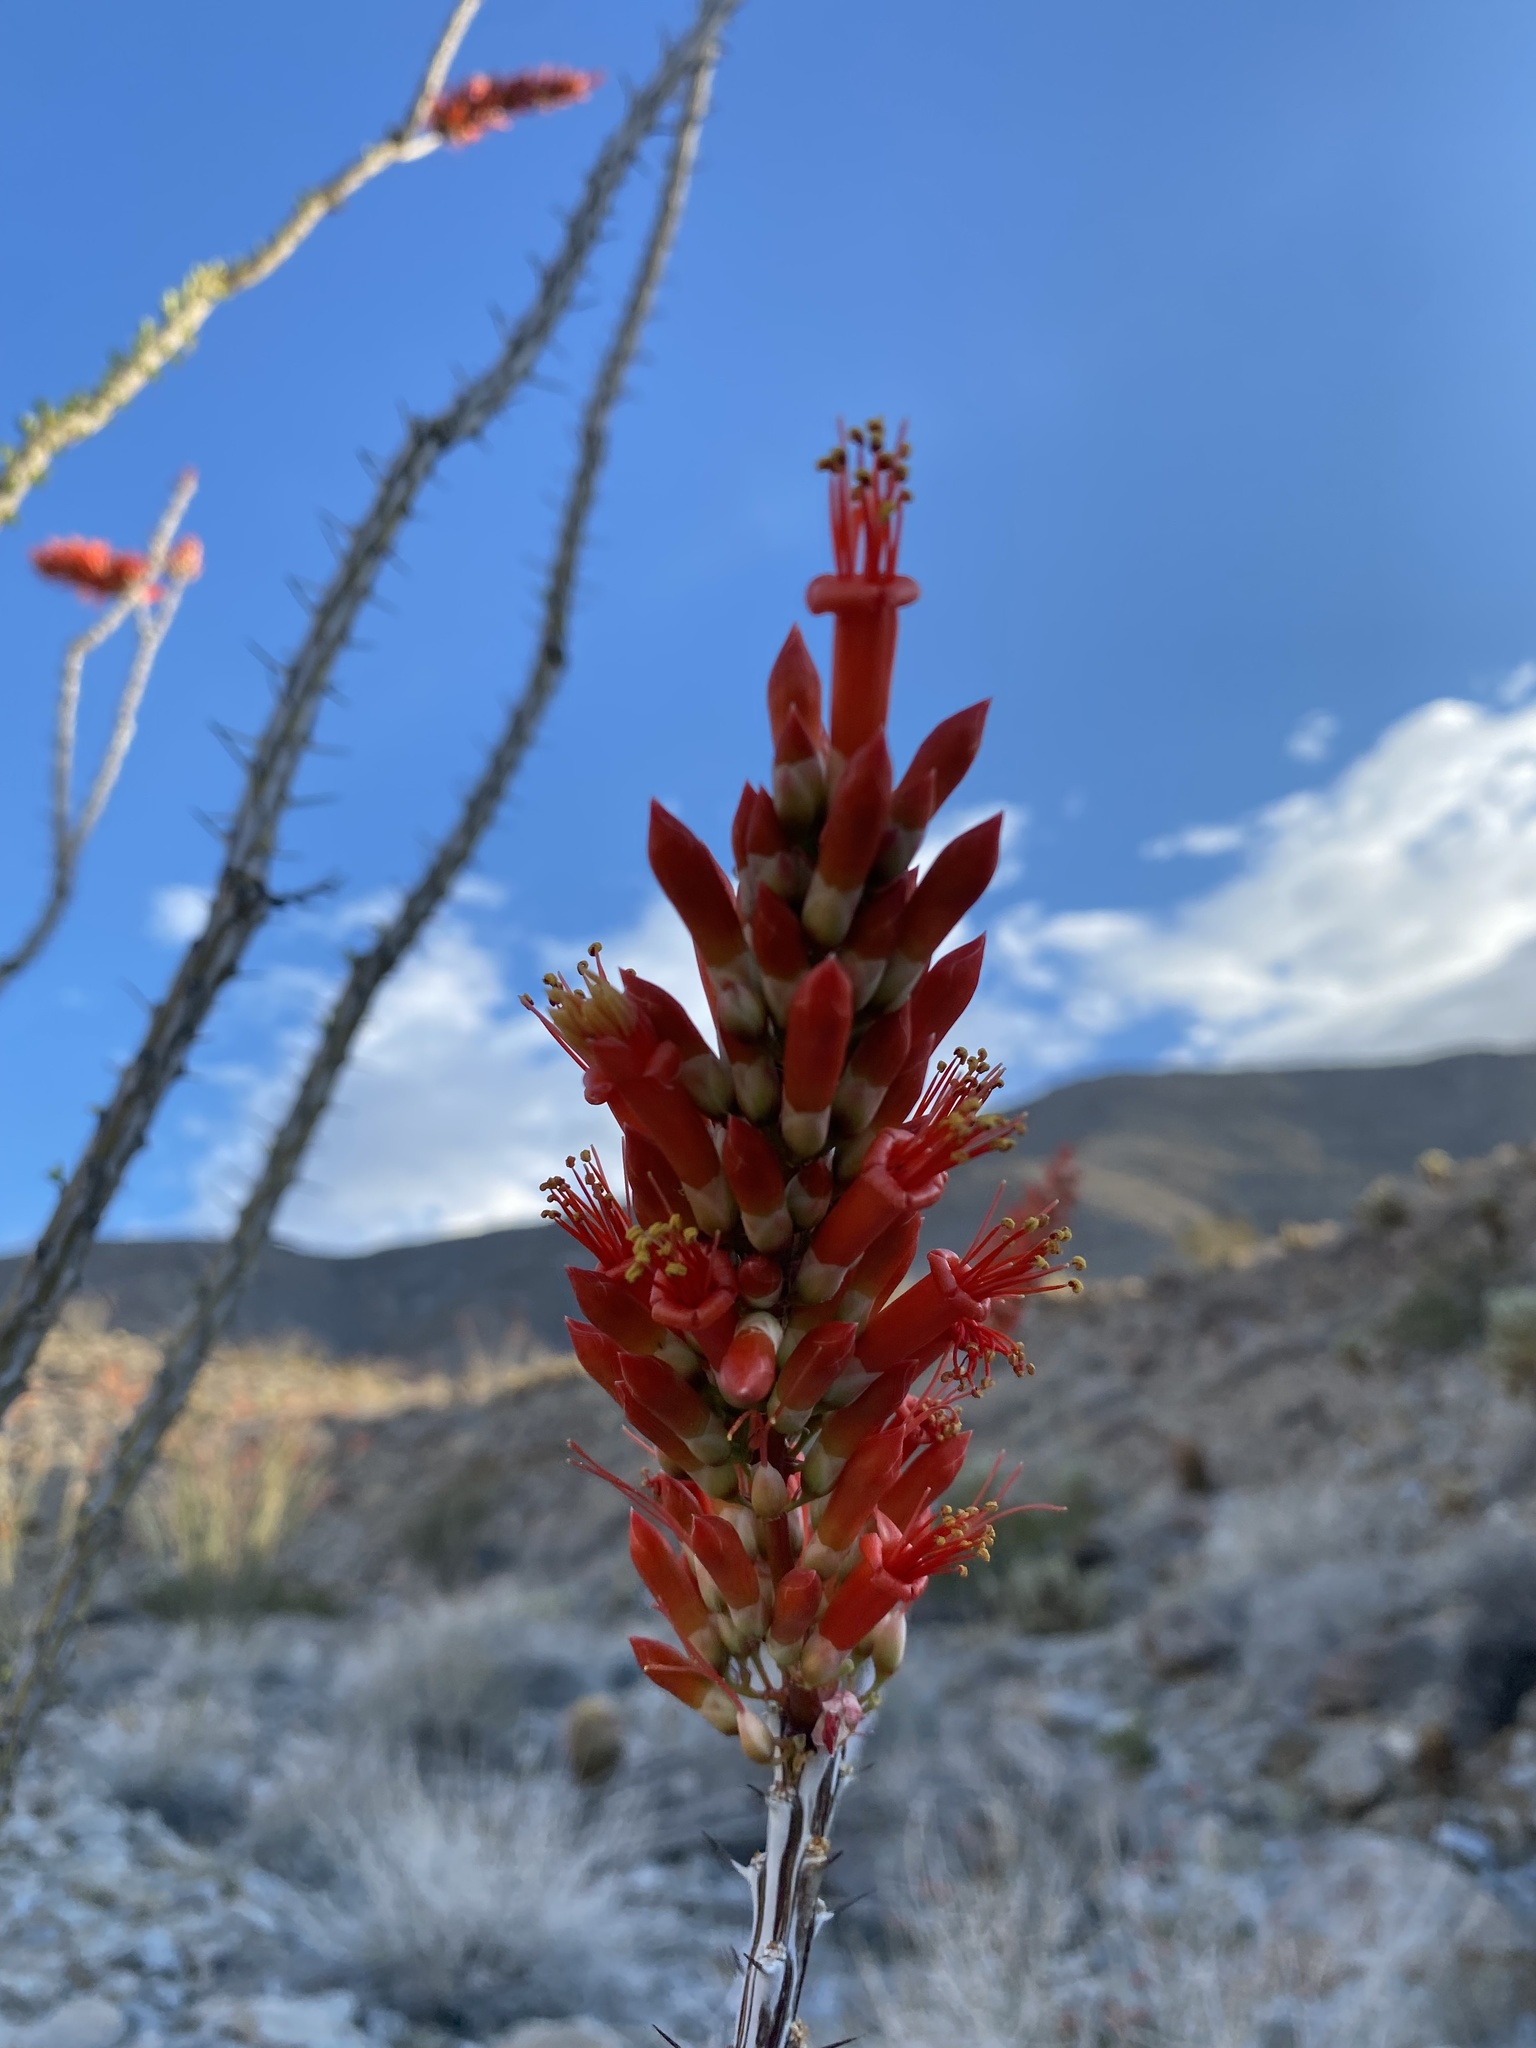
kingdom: Plantae
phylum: Tracheophyta
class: Magnoliopsida
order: Ericales
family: Fouquieriaceae
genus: Fouquieria
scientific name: Fouquieria splendens
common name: Vine-cactus
